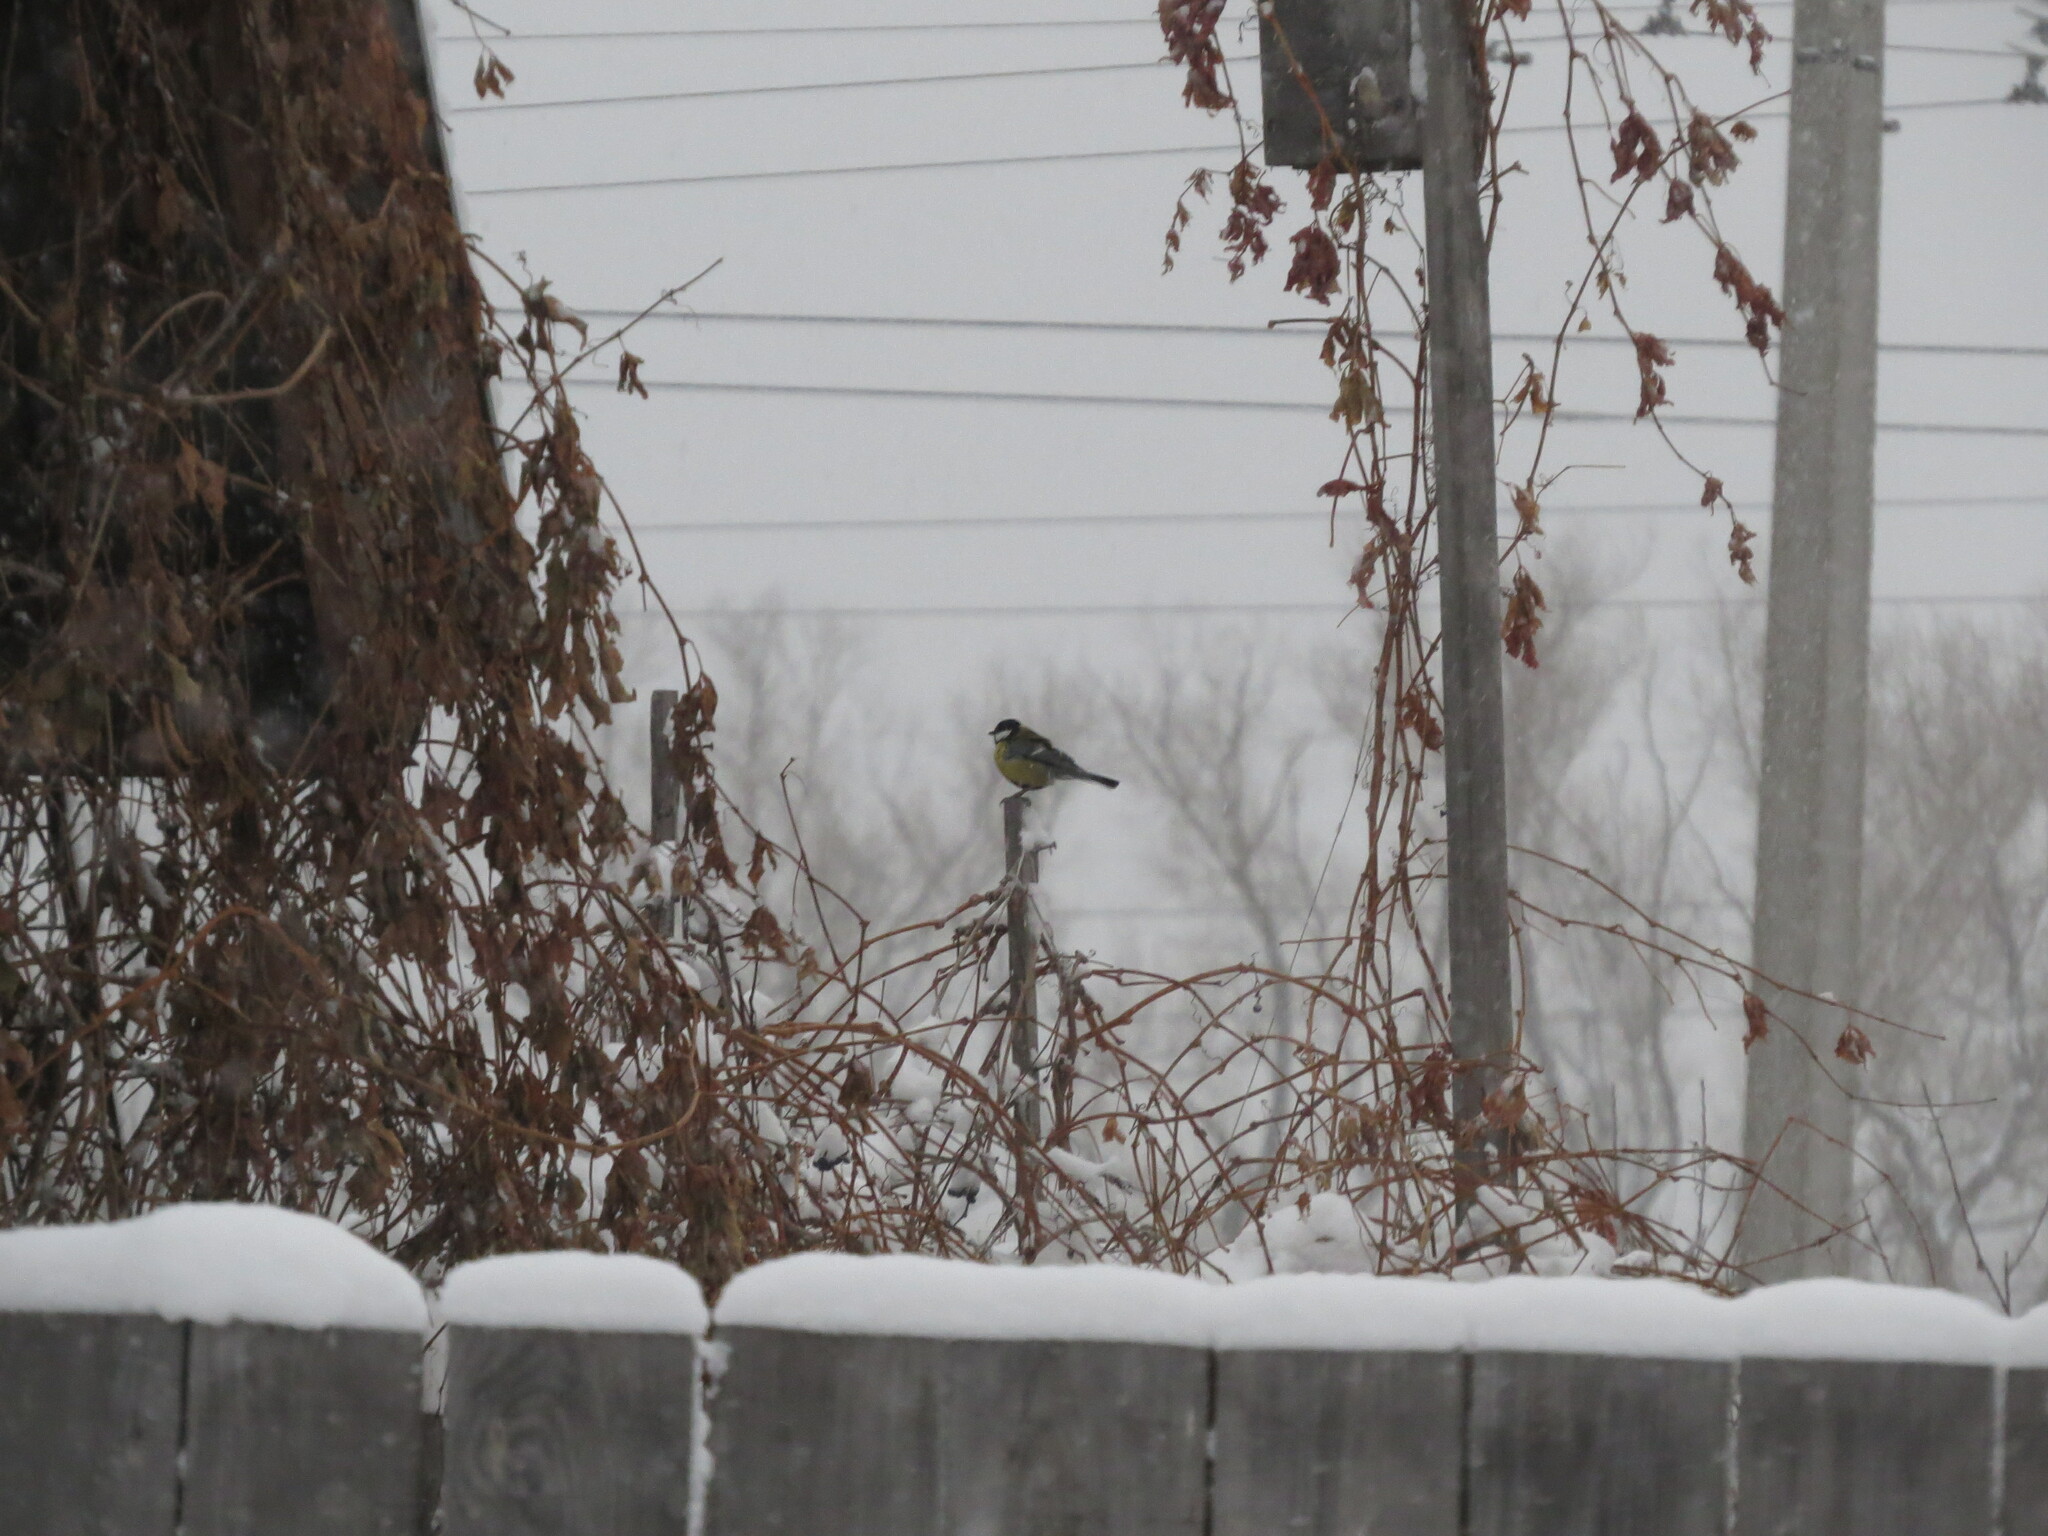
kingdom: Animalia
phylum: Chordata
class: Aves
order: Passeriformes
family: Paridae
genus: Parus
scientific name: Parus major
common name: Great tit
